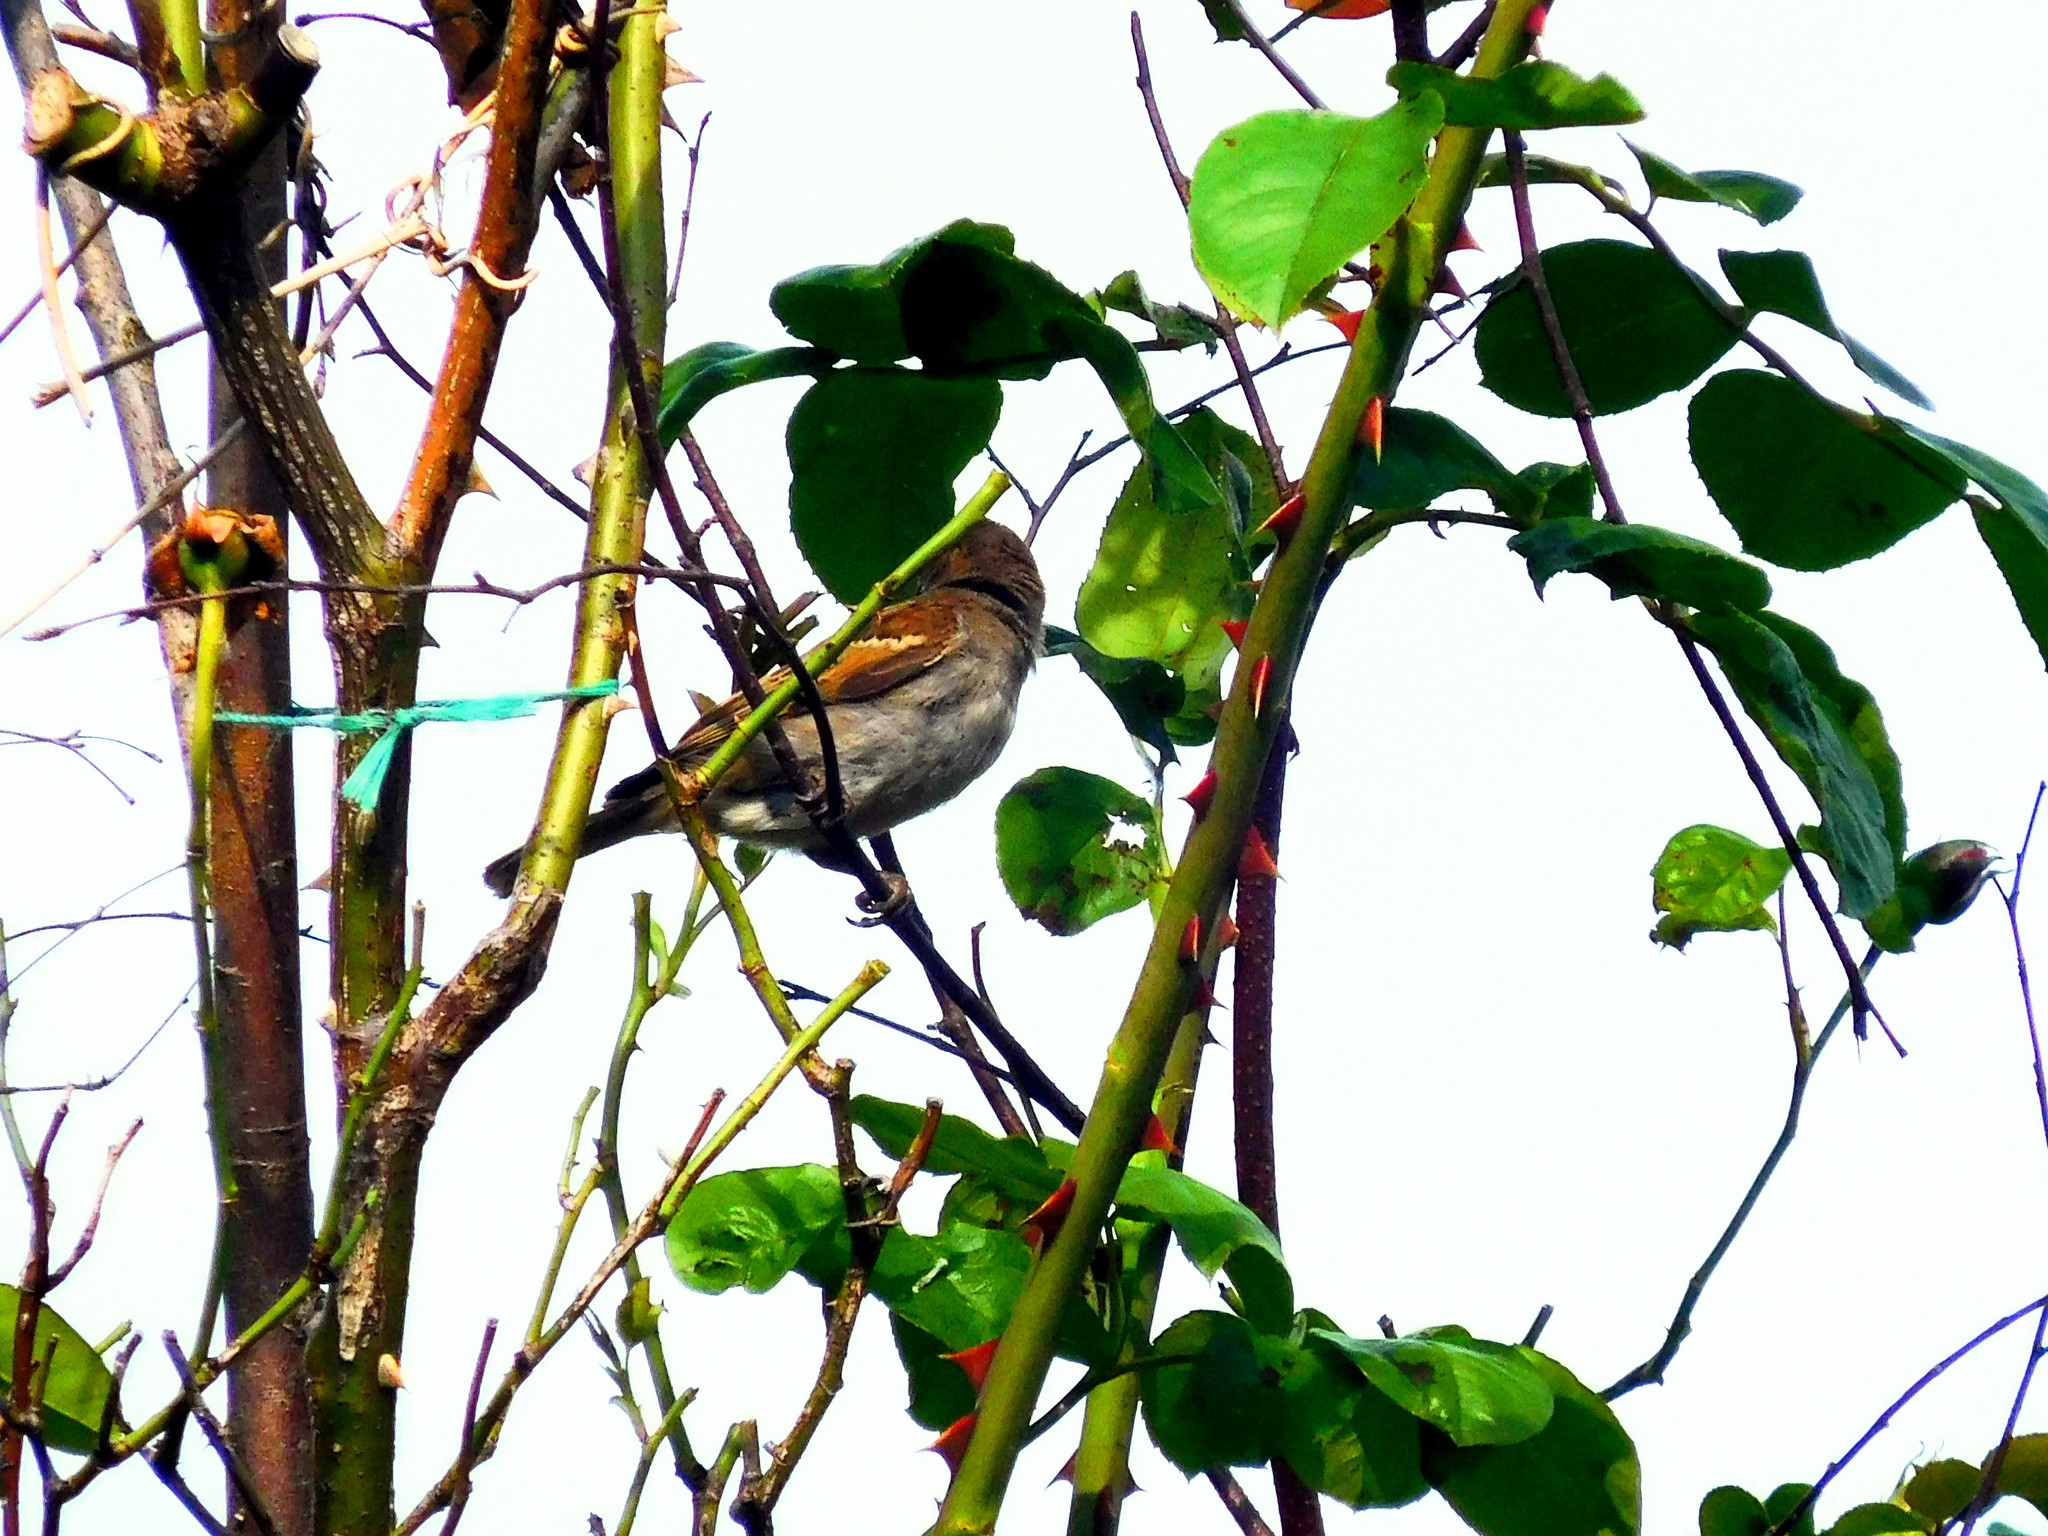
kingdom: Animalia
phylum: Chordata
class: Aves
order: Passeriformes
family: Passeridae
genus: Passer
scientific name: Passer domesticus
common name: House sparrow
